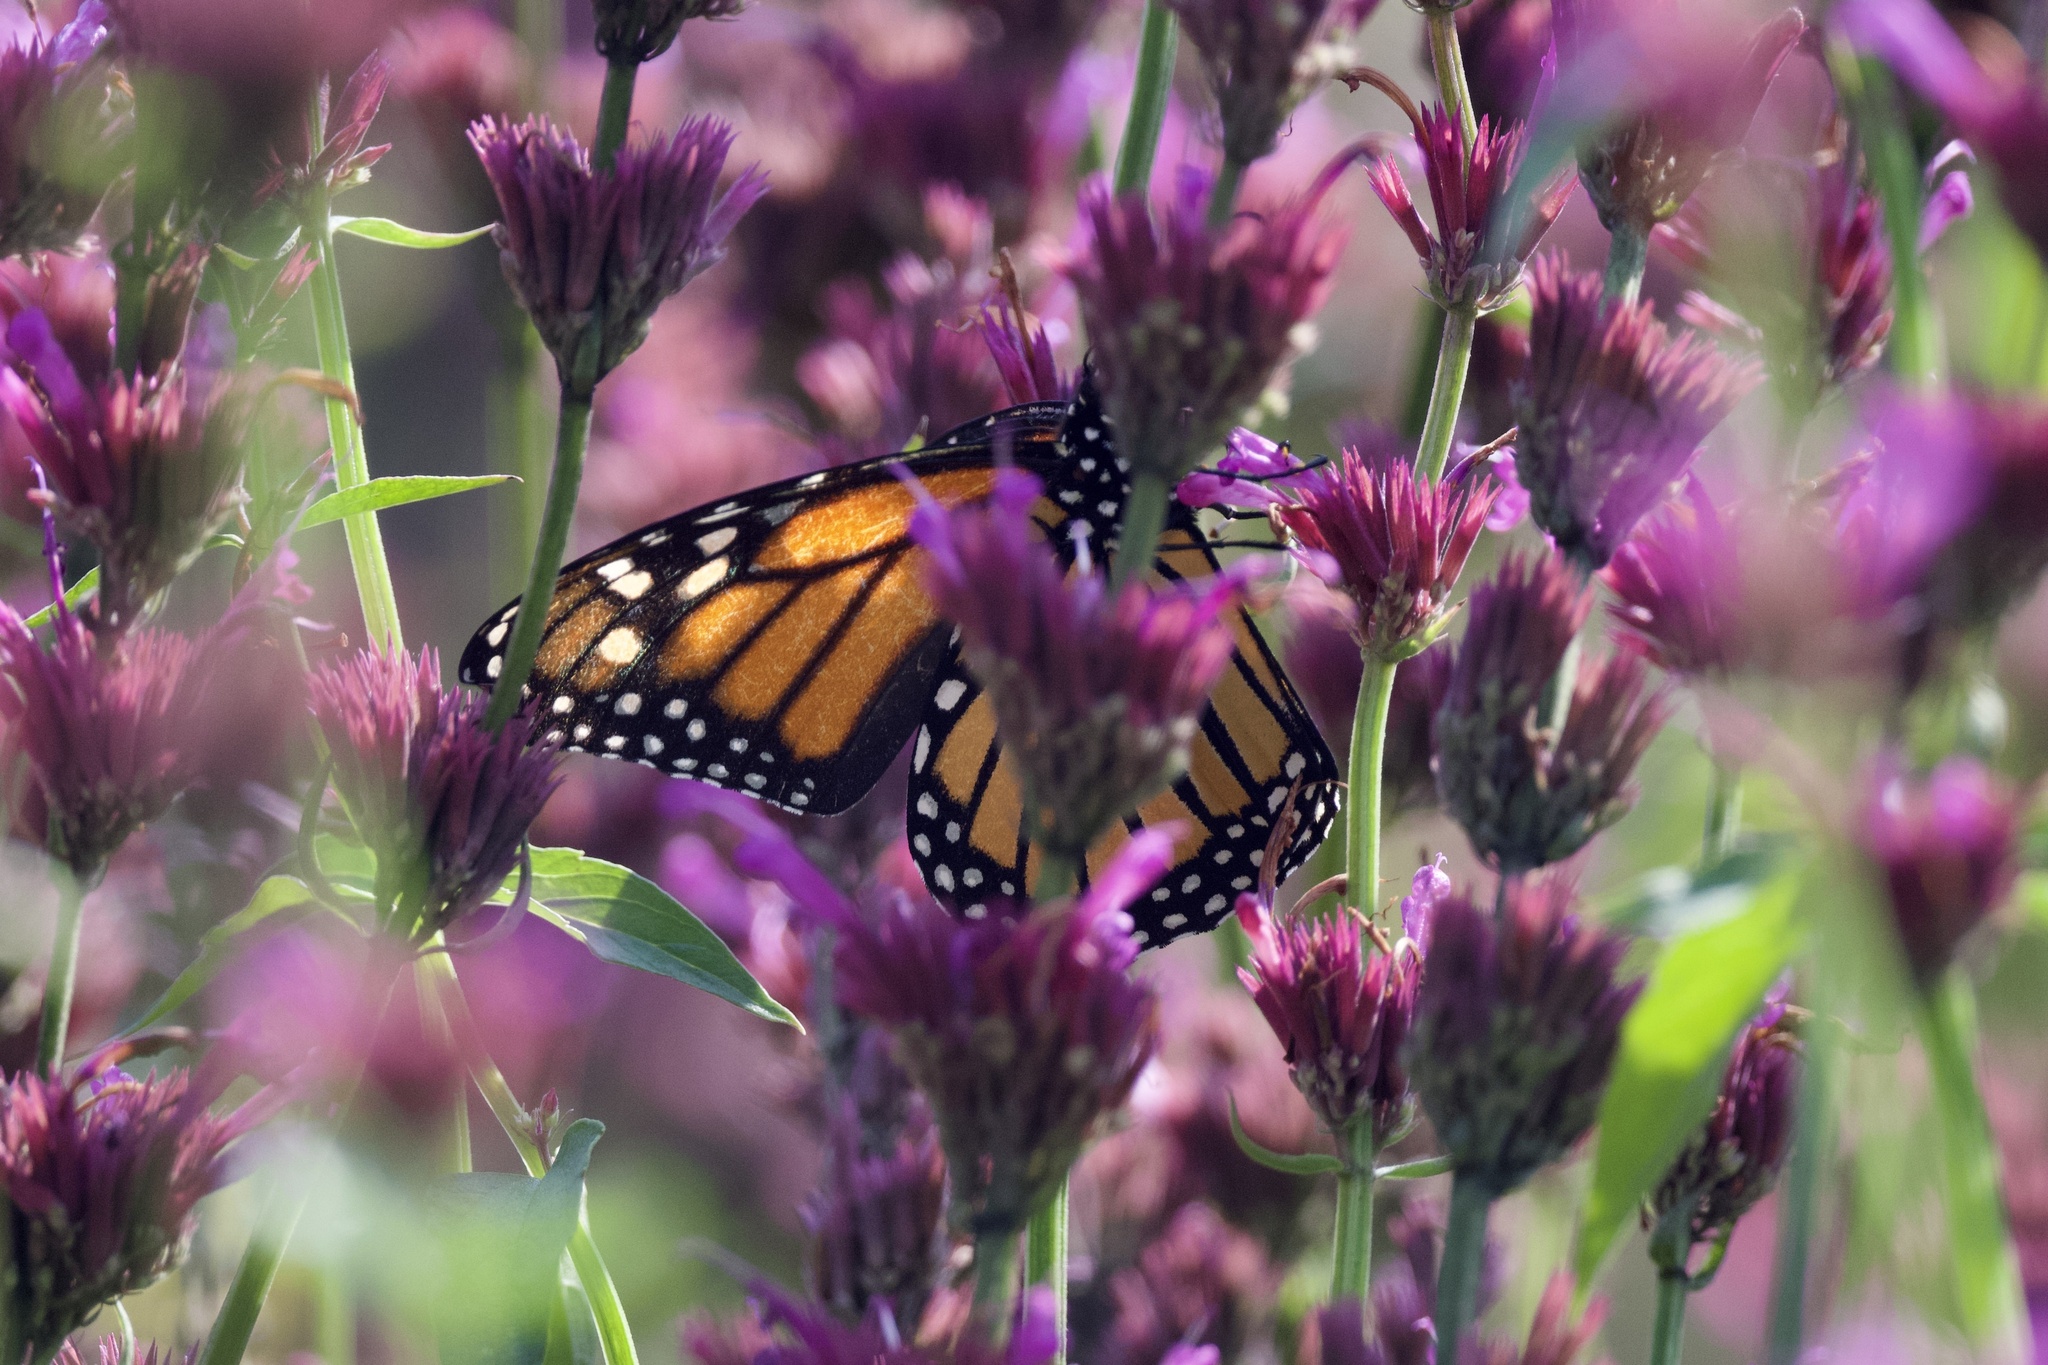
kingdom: Animalia
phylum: Arthropoda
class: Insecta
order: Lepidoptera
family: Nymphalidae
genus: Danaus
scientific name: Danaus plexippus
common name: Monarch
